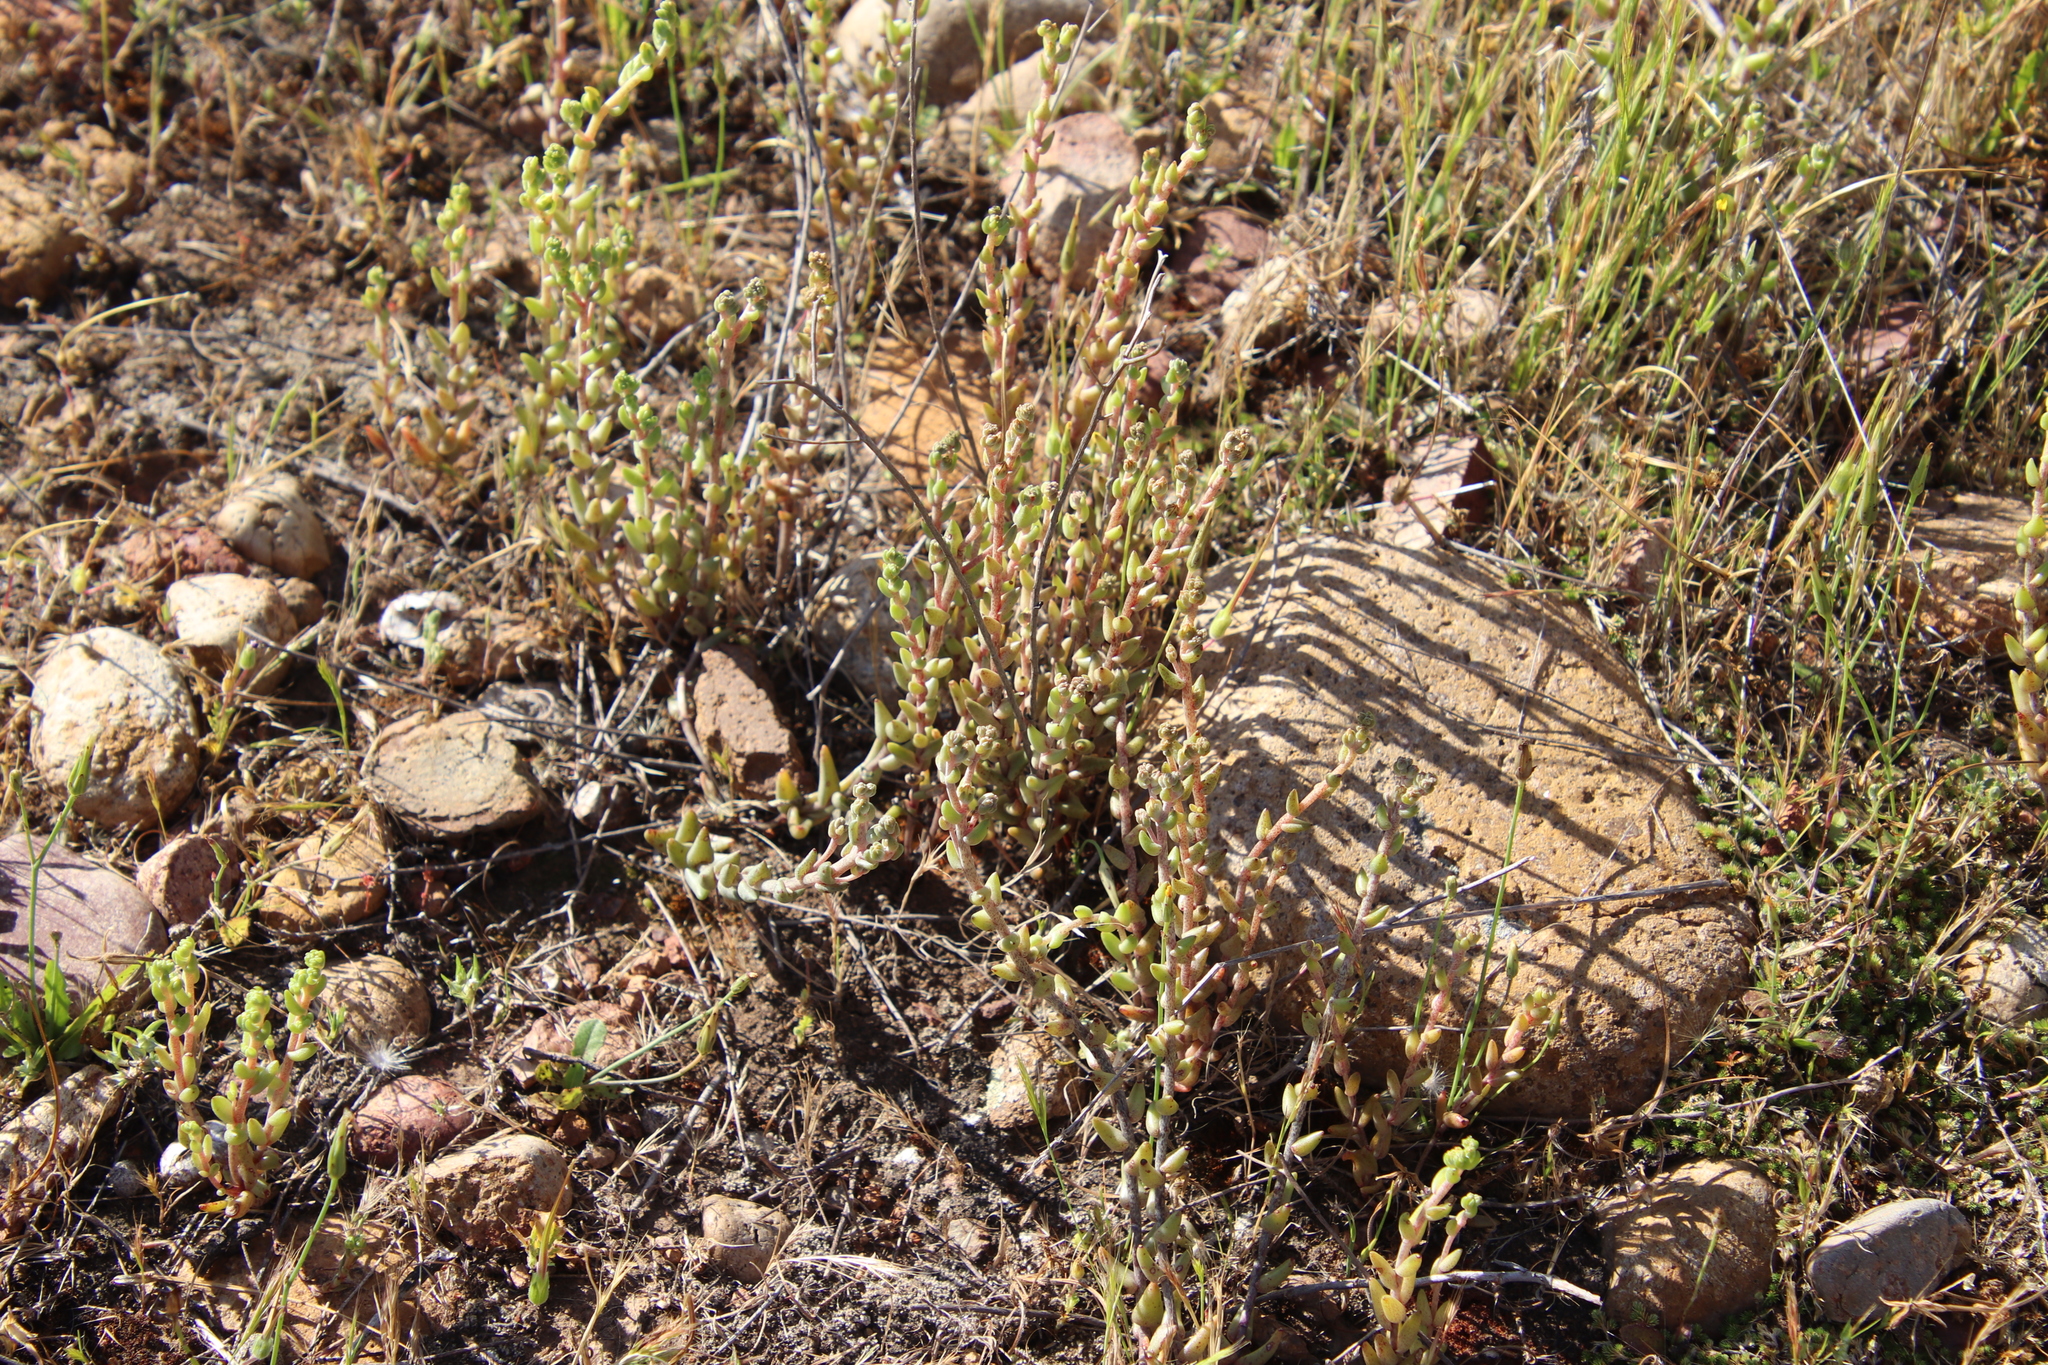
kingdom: Plantae
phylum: Tracheophyta
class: Magnoliopsida
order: Saxifragales
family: Crassulaceae
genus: Dudleya
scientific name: Dudleya variegata
